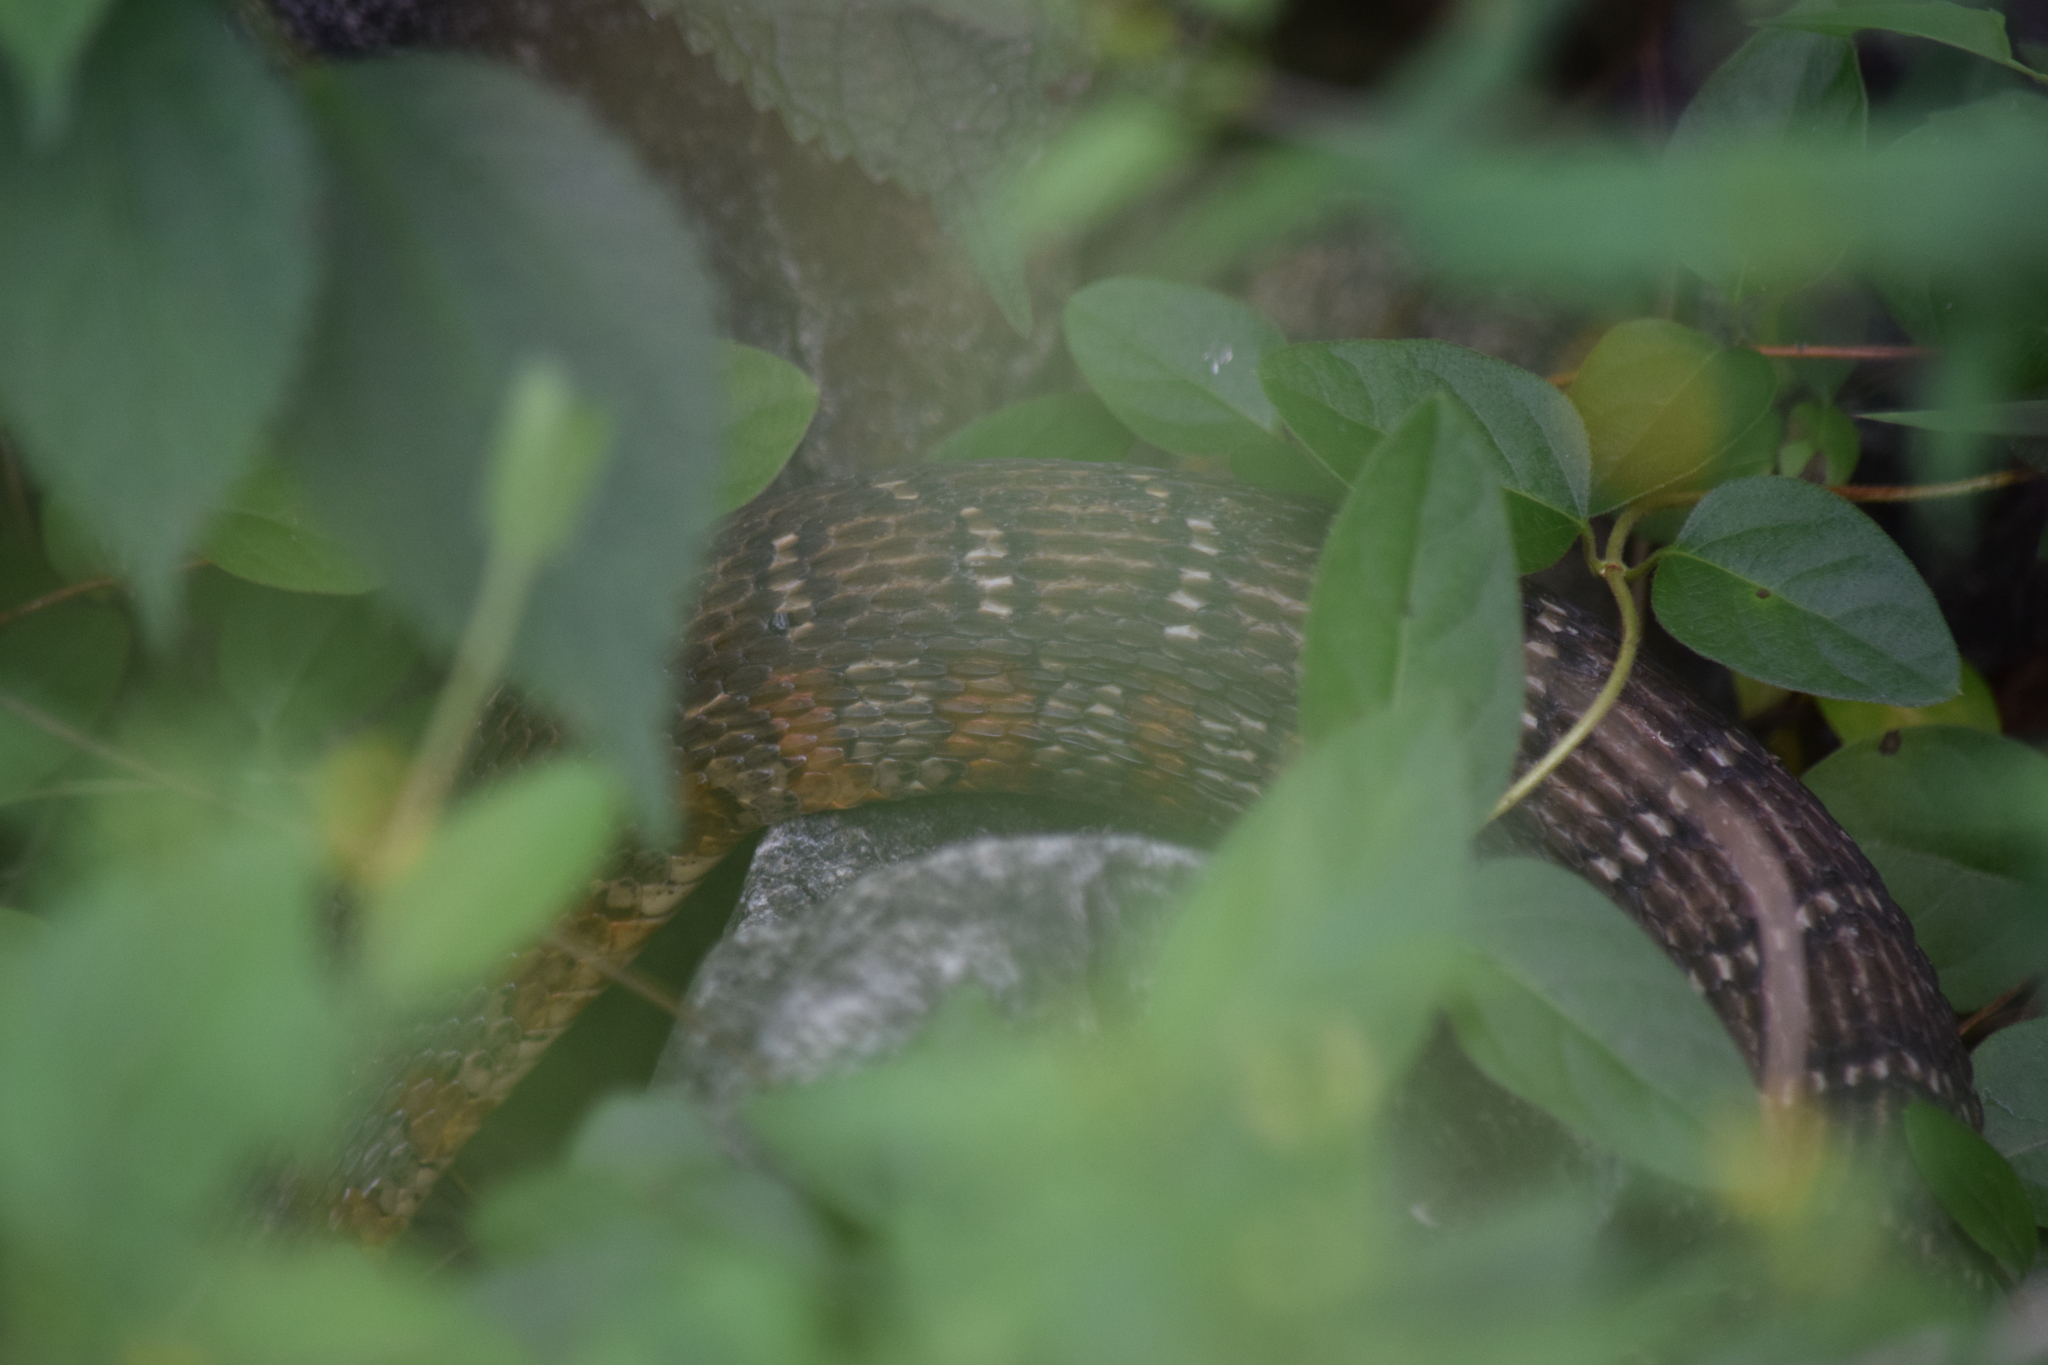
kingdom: Animalia
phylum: Chordata
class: Squamata
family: Colubridae
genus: Nerodia
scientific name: Nerodia sipedon
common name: Northern water snake
